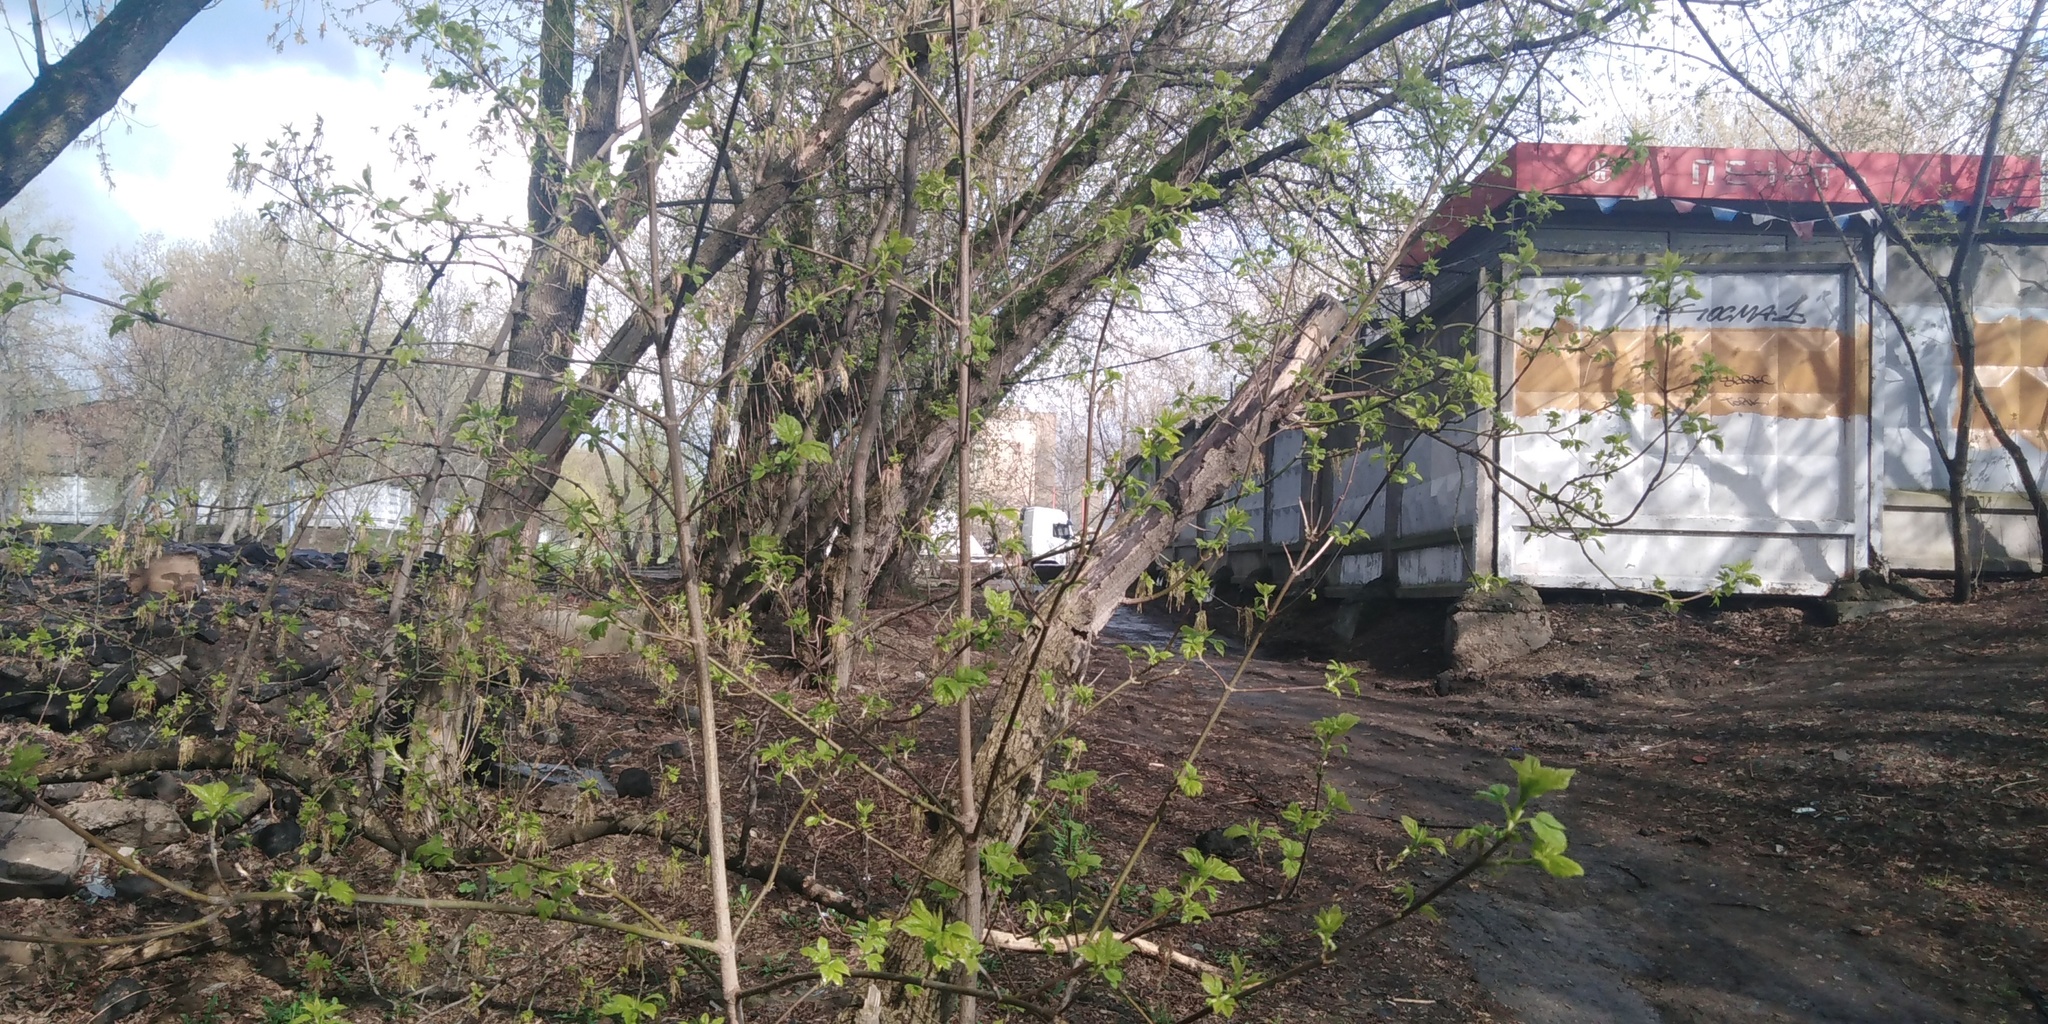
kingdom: Plantae
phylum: Tracheophyta
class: Magnoliopsida
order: Sapindales
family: Sapindaceae
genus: Acer
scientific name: Acer negundo
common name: Ashleaf maple
